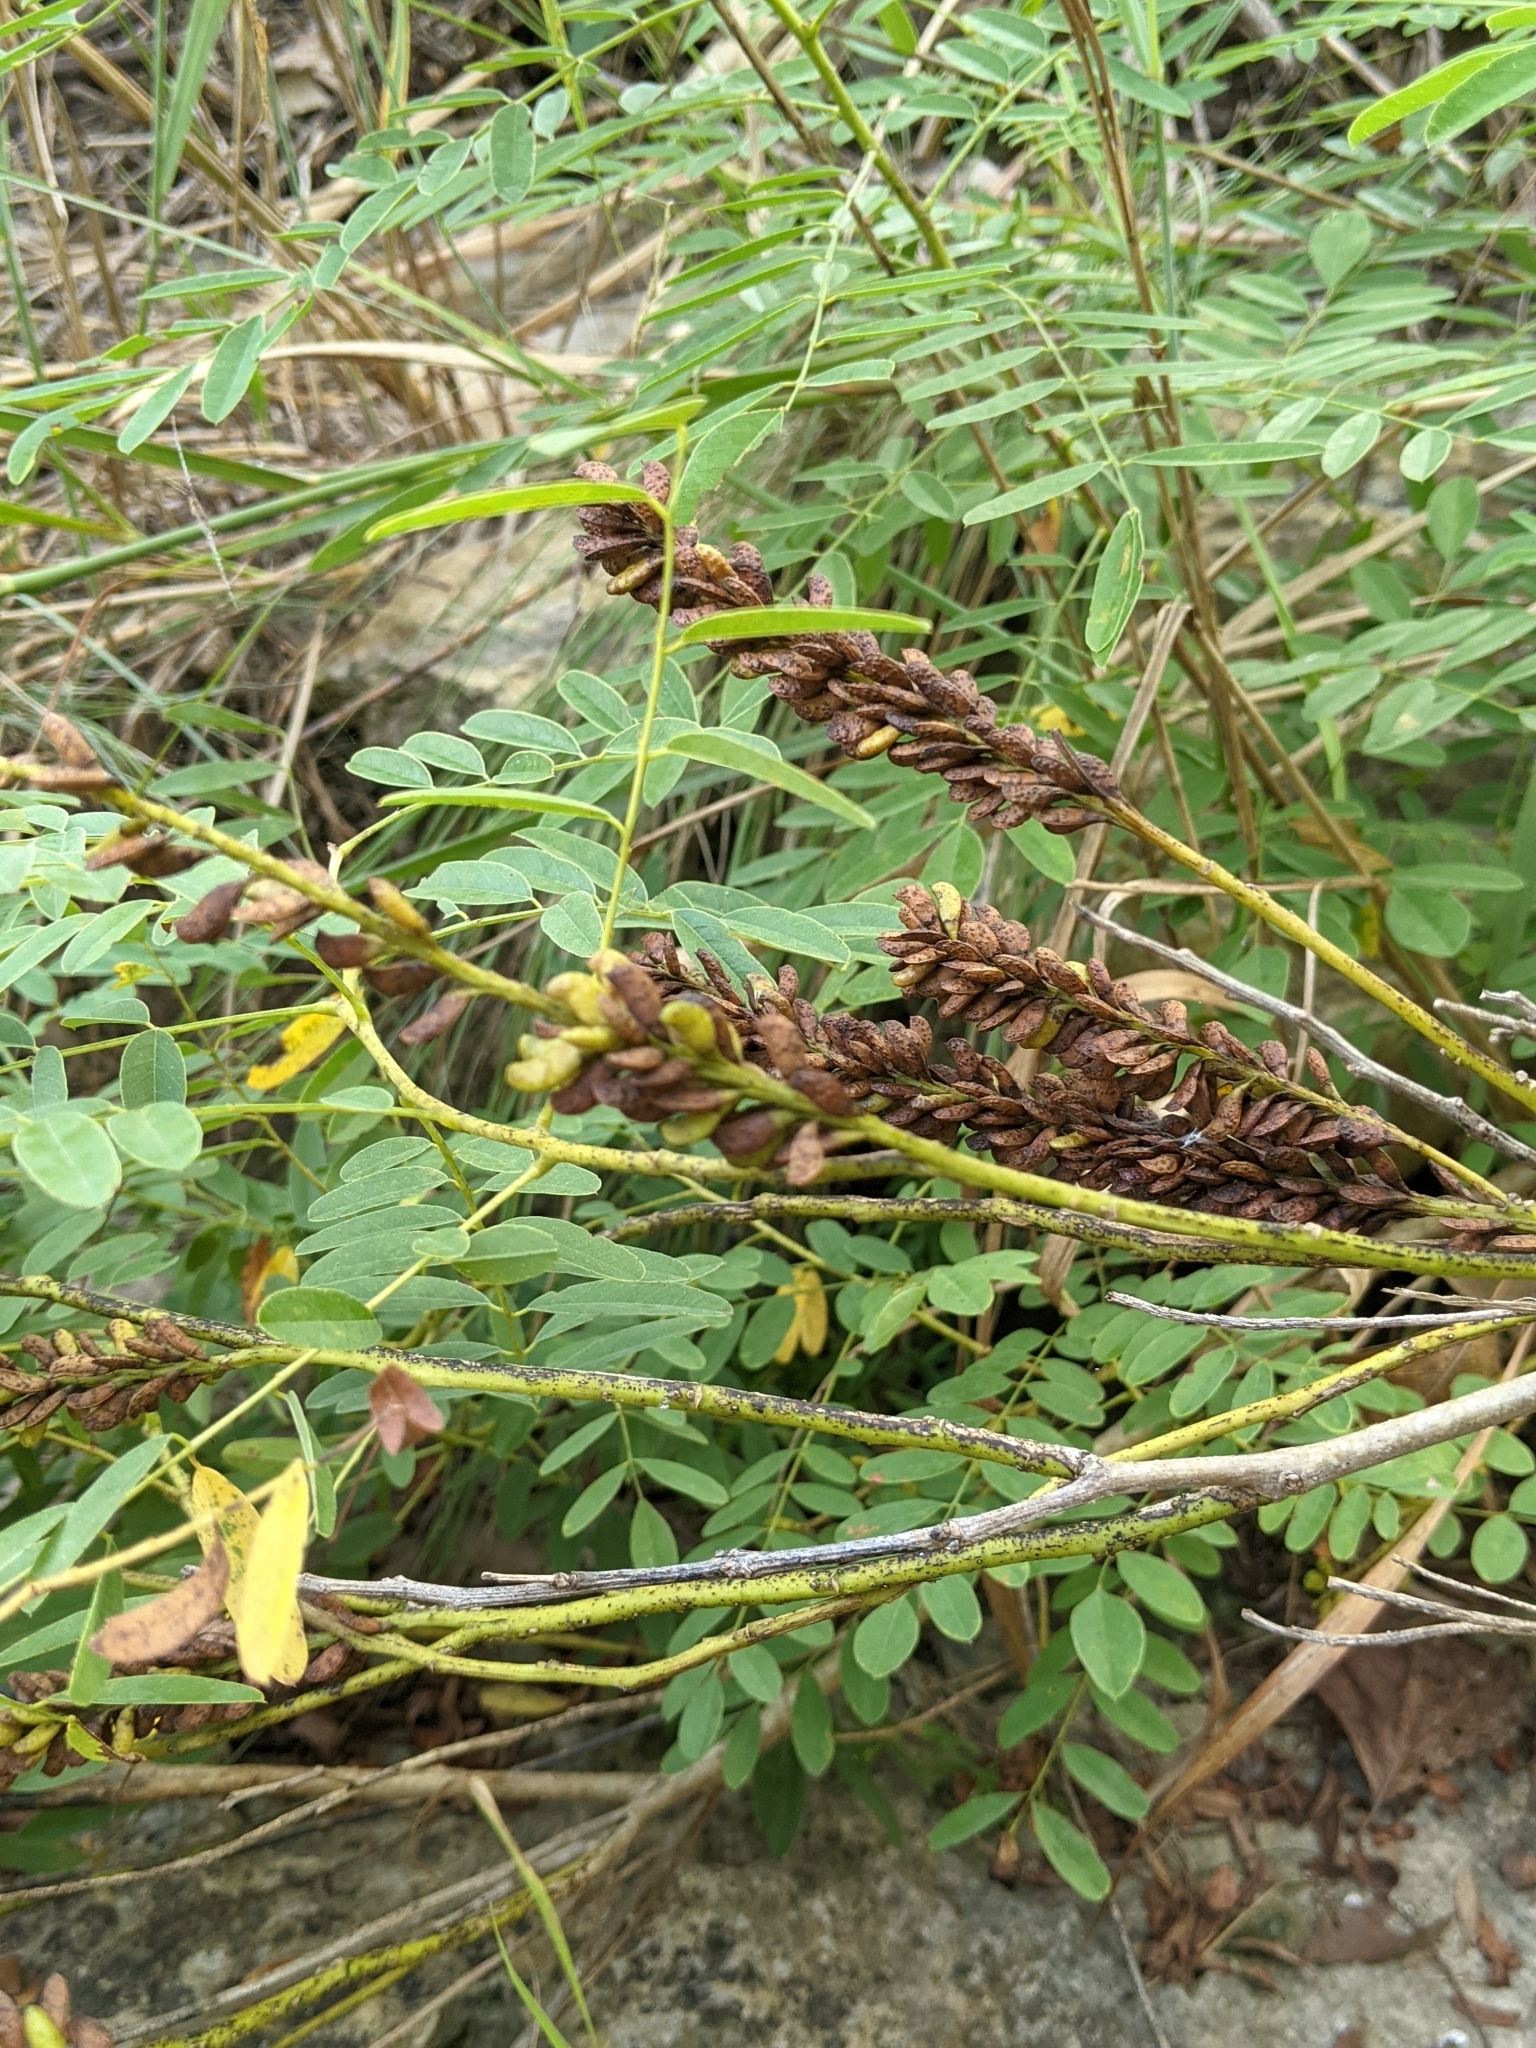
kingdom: Plantae
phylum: Tracheophyta
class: Magnoliopsida
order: Fabales
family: Fabaceae
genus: Amorpha
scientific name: Amorpha fruticosa
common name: False indigo
